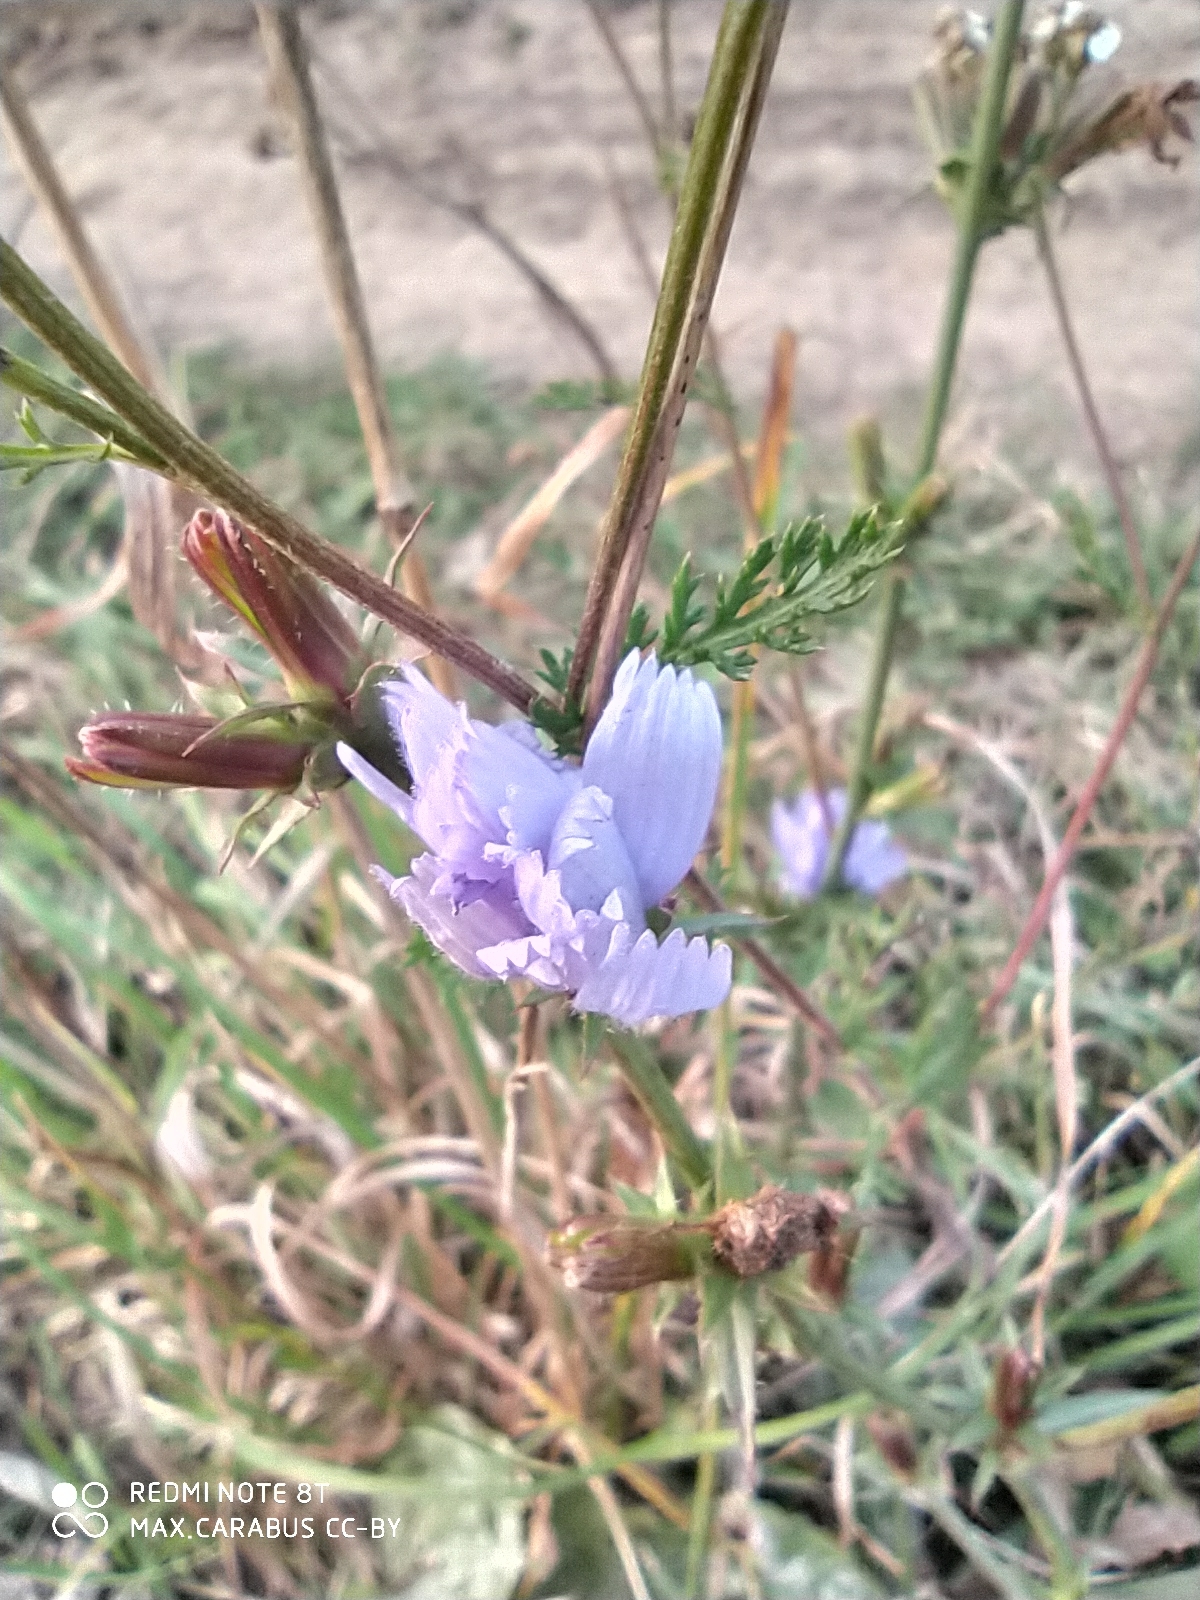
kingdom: Plantae
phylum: Tracheophyta
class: Magnoliopsida
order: Asterales
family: Asteraceae
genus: Cichorium
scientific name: Cichorium intybus
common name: Chicory
